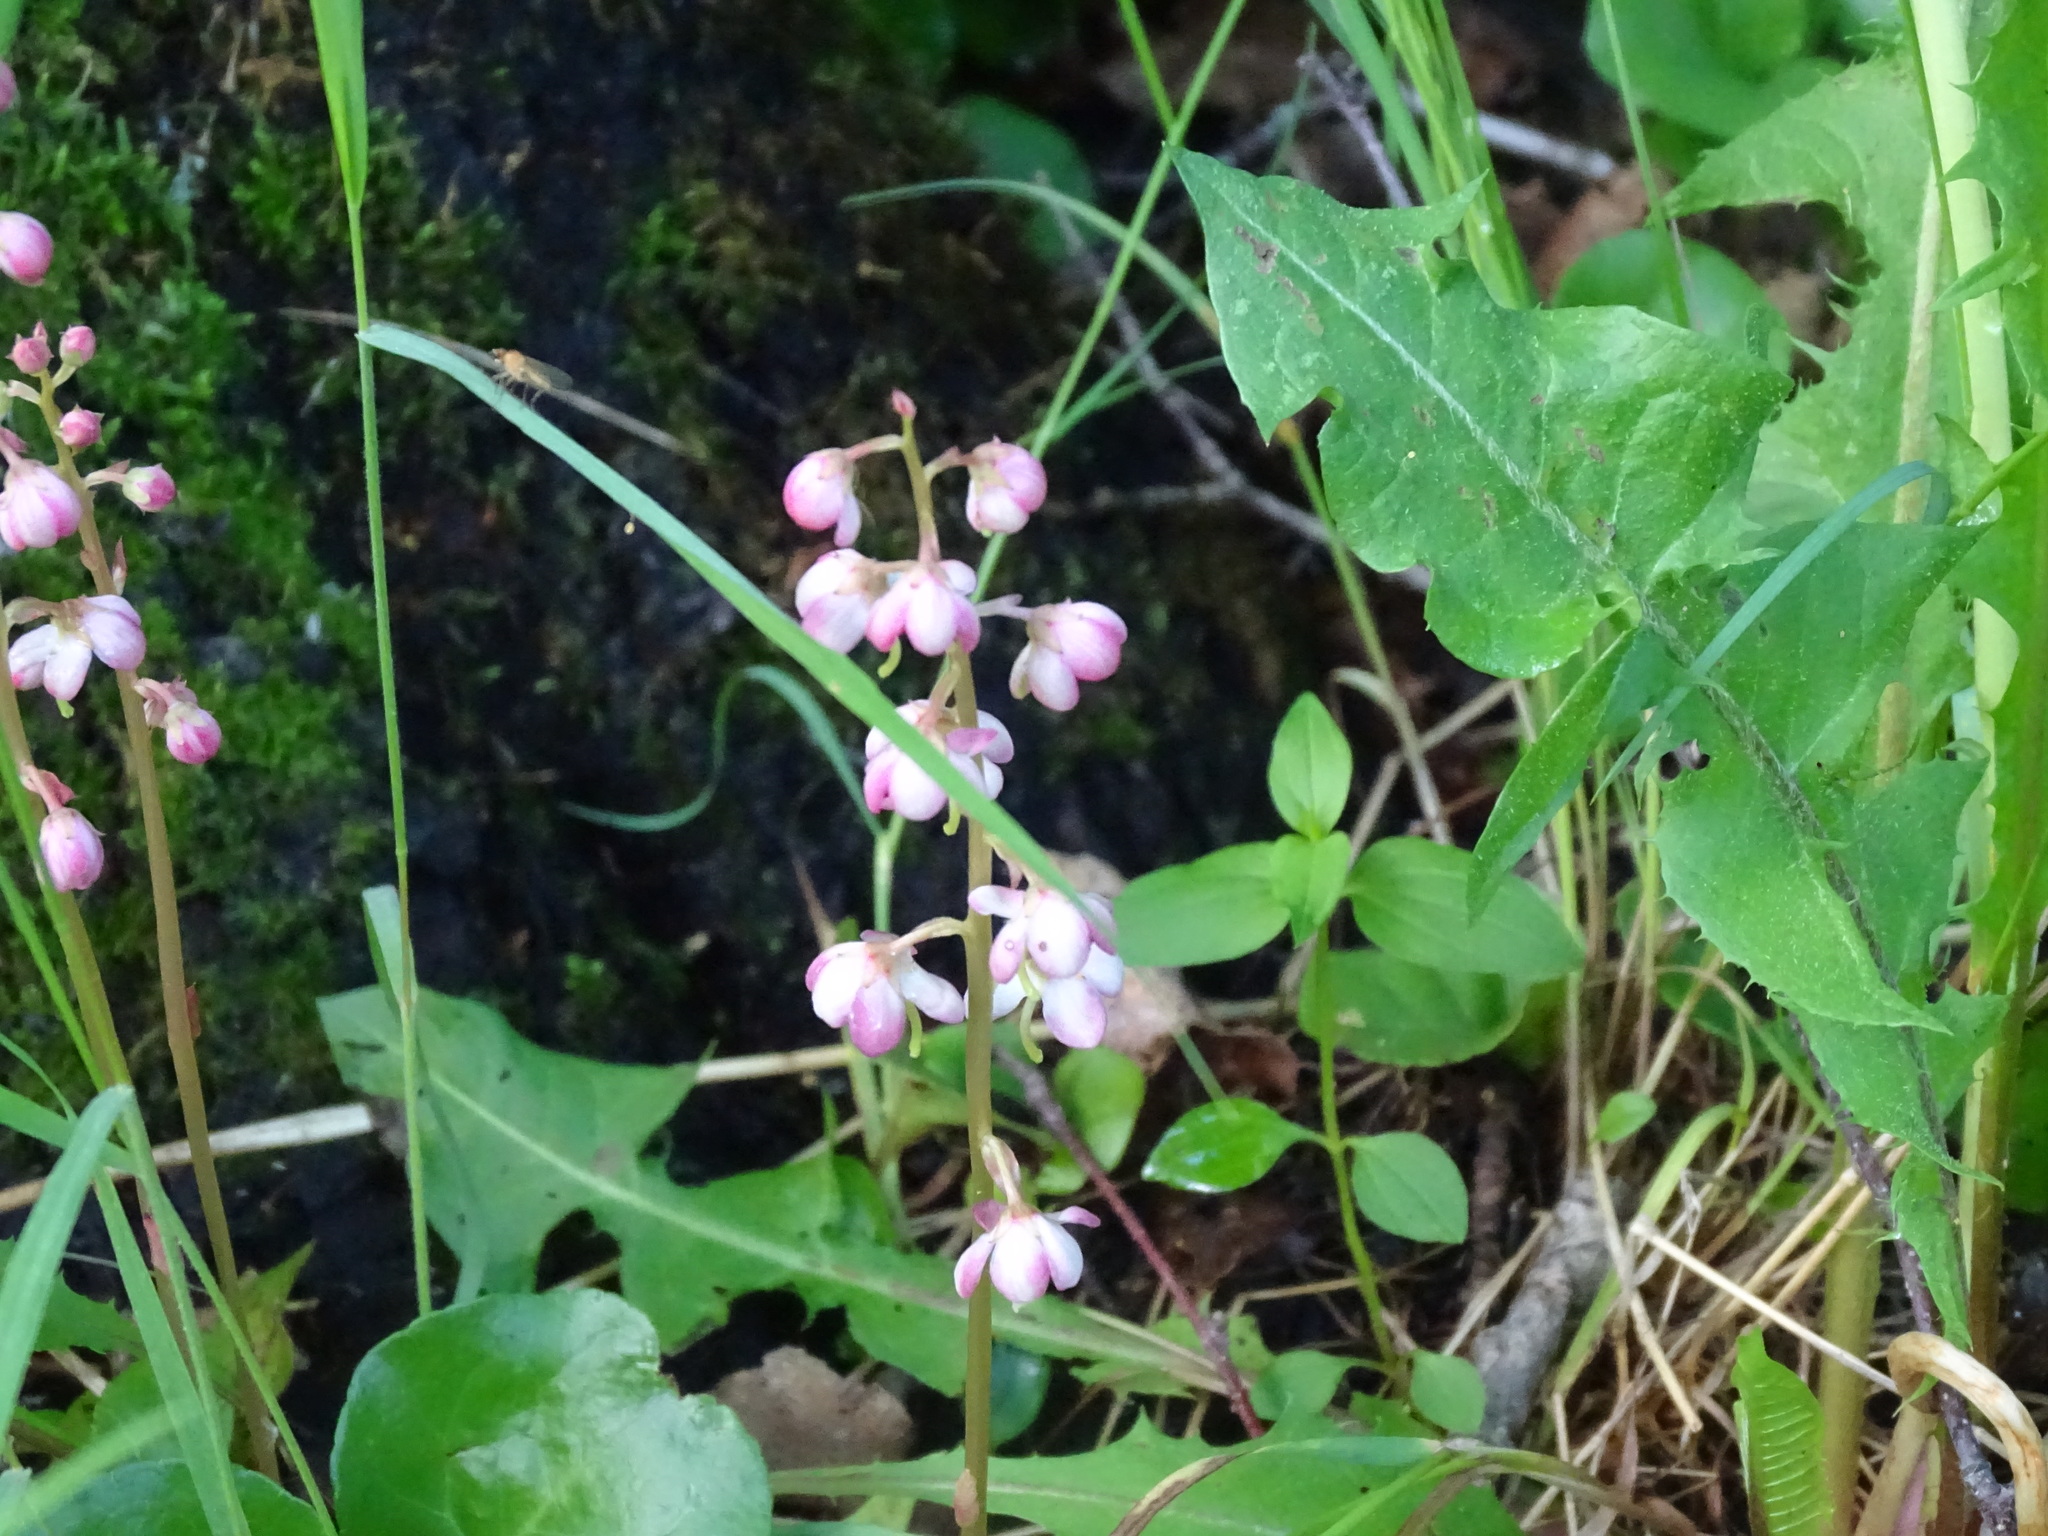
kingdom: Plantae
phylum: Tracheophyta
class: Magnoliopsida
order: Ericales
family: Ericaceae
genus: Pyrola
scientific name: Pyrola asarifolia
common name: Bog wintergreen
